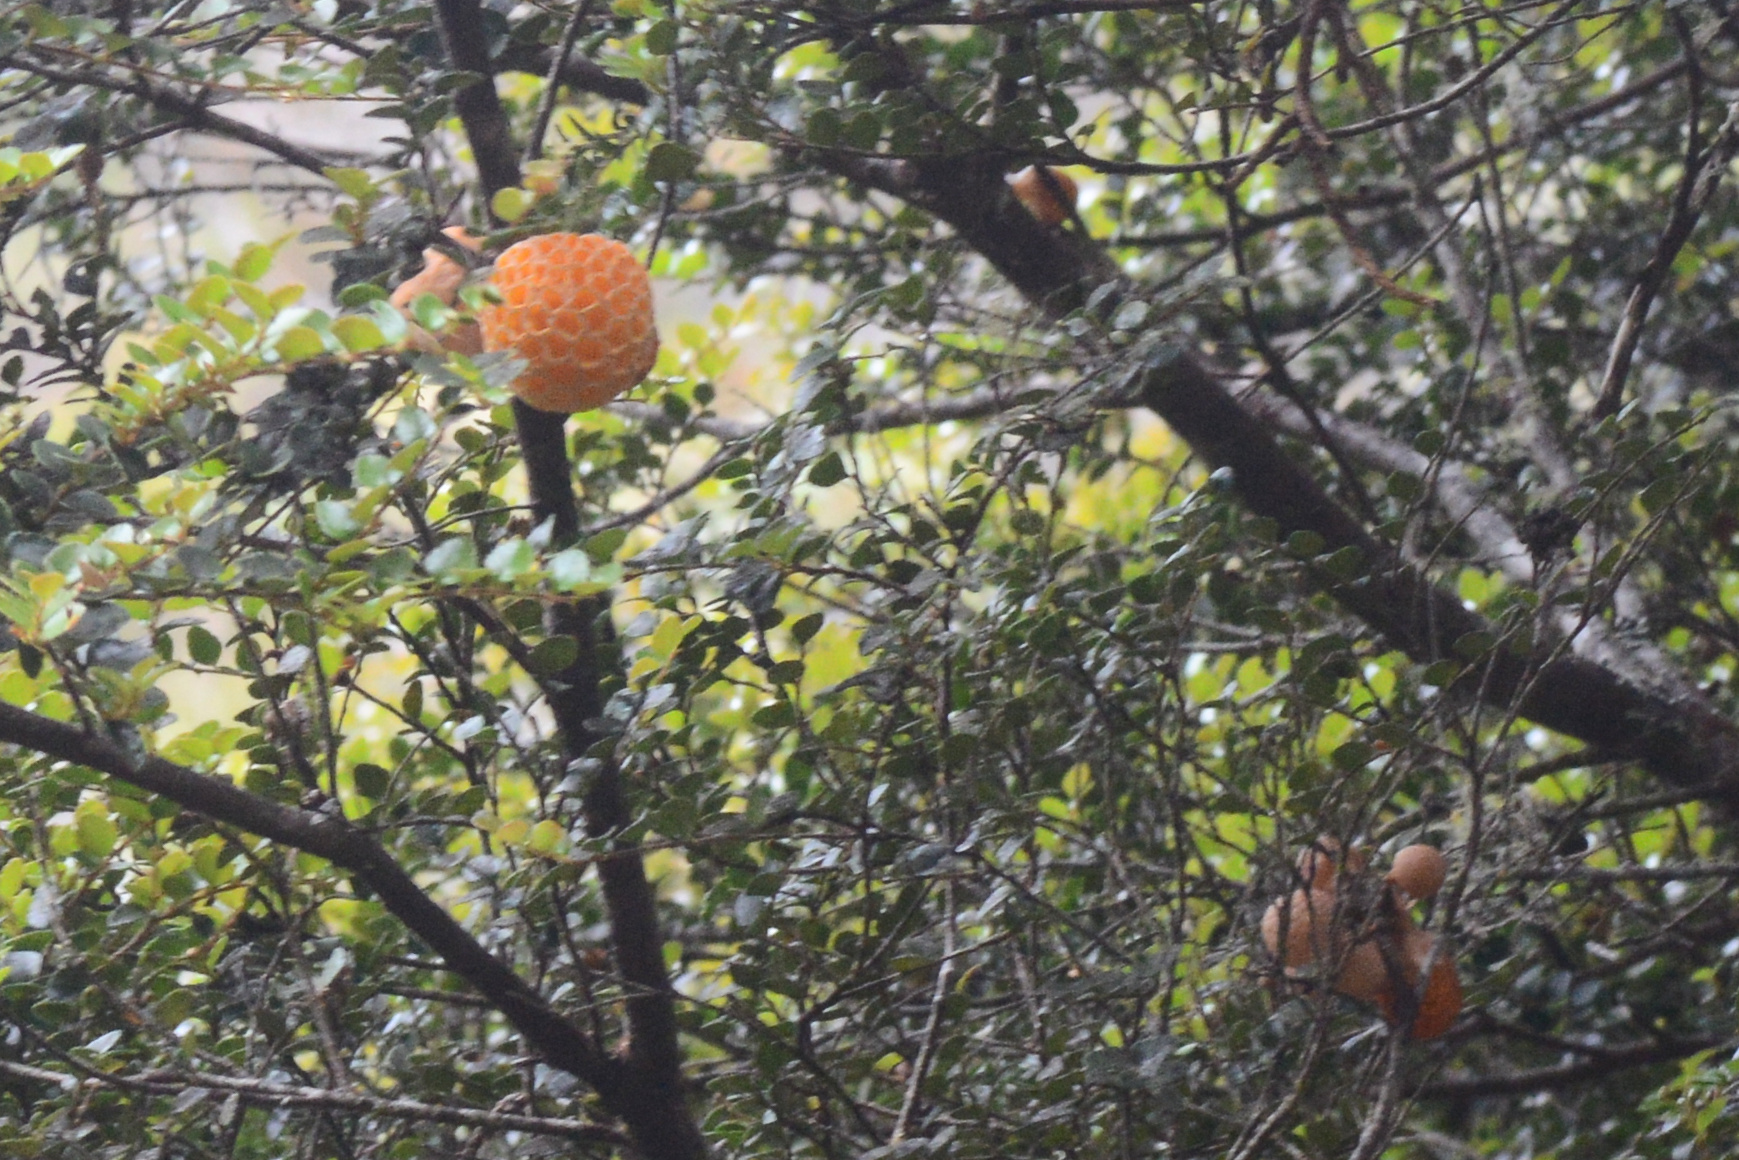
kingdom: Fungi
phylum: Ascomycota
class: Leotiomycetes
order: Cyttariales
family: Cyttariaceae
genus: Cyttaria
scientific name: Cyttaria gunnii
